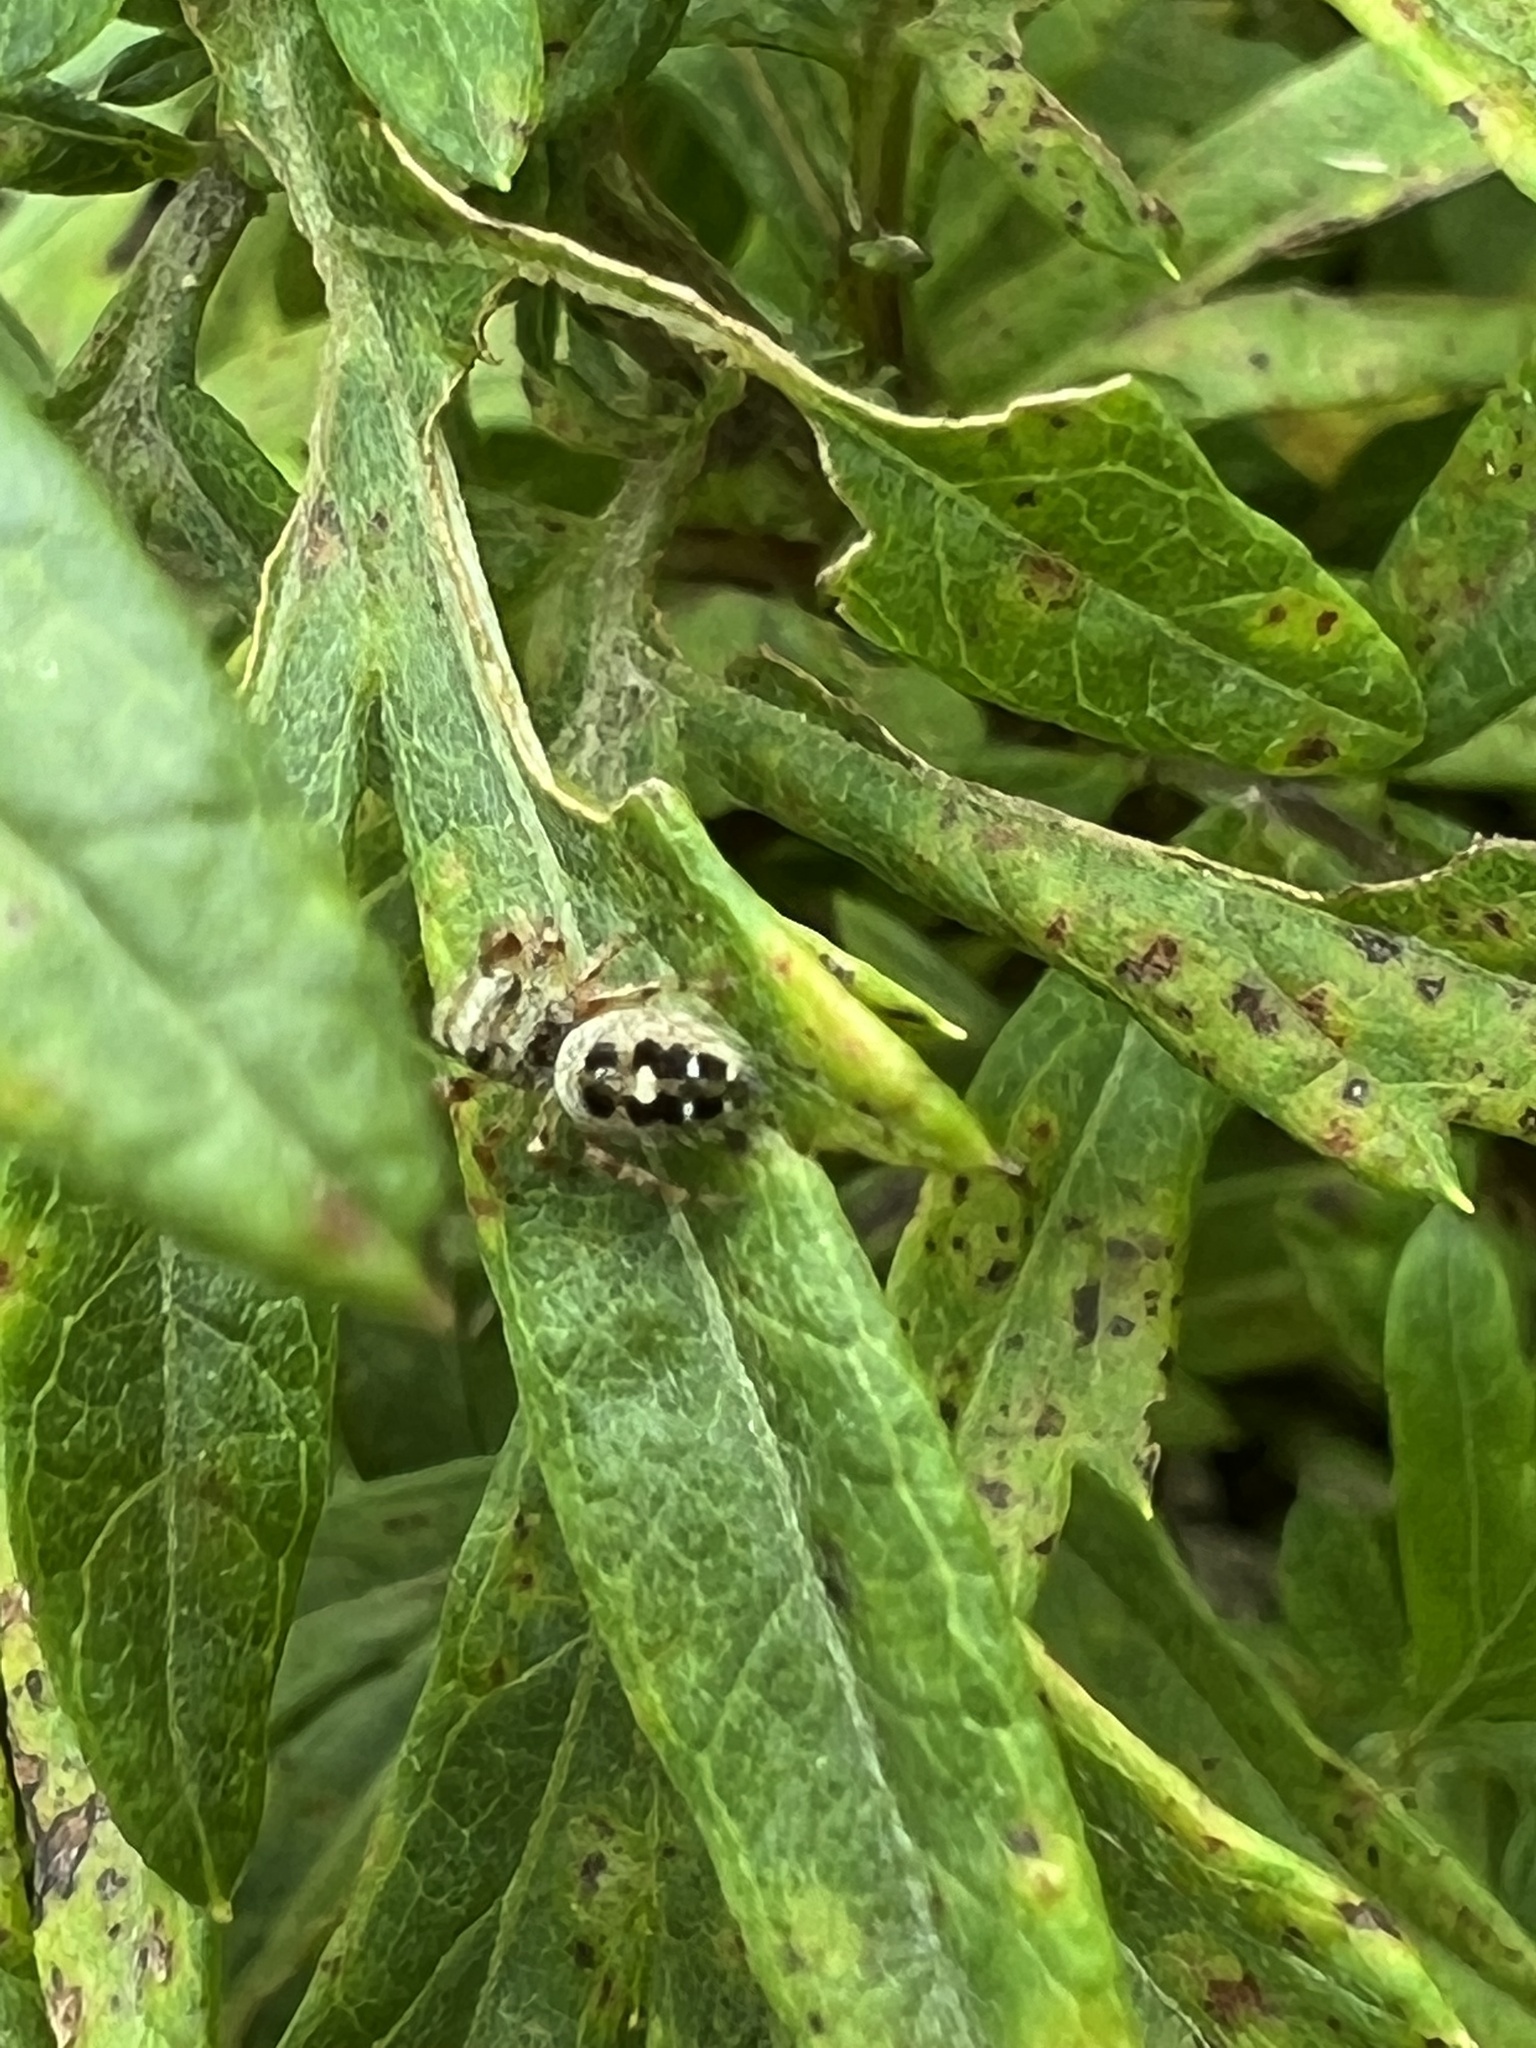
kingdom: Animalia
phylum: Arthropoda
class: Arachnida
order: Araneae
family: Salticidae
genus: Phidippus
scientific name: Phidippus princeps
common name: Grayish jumping spider
